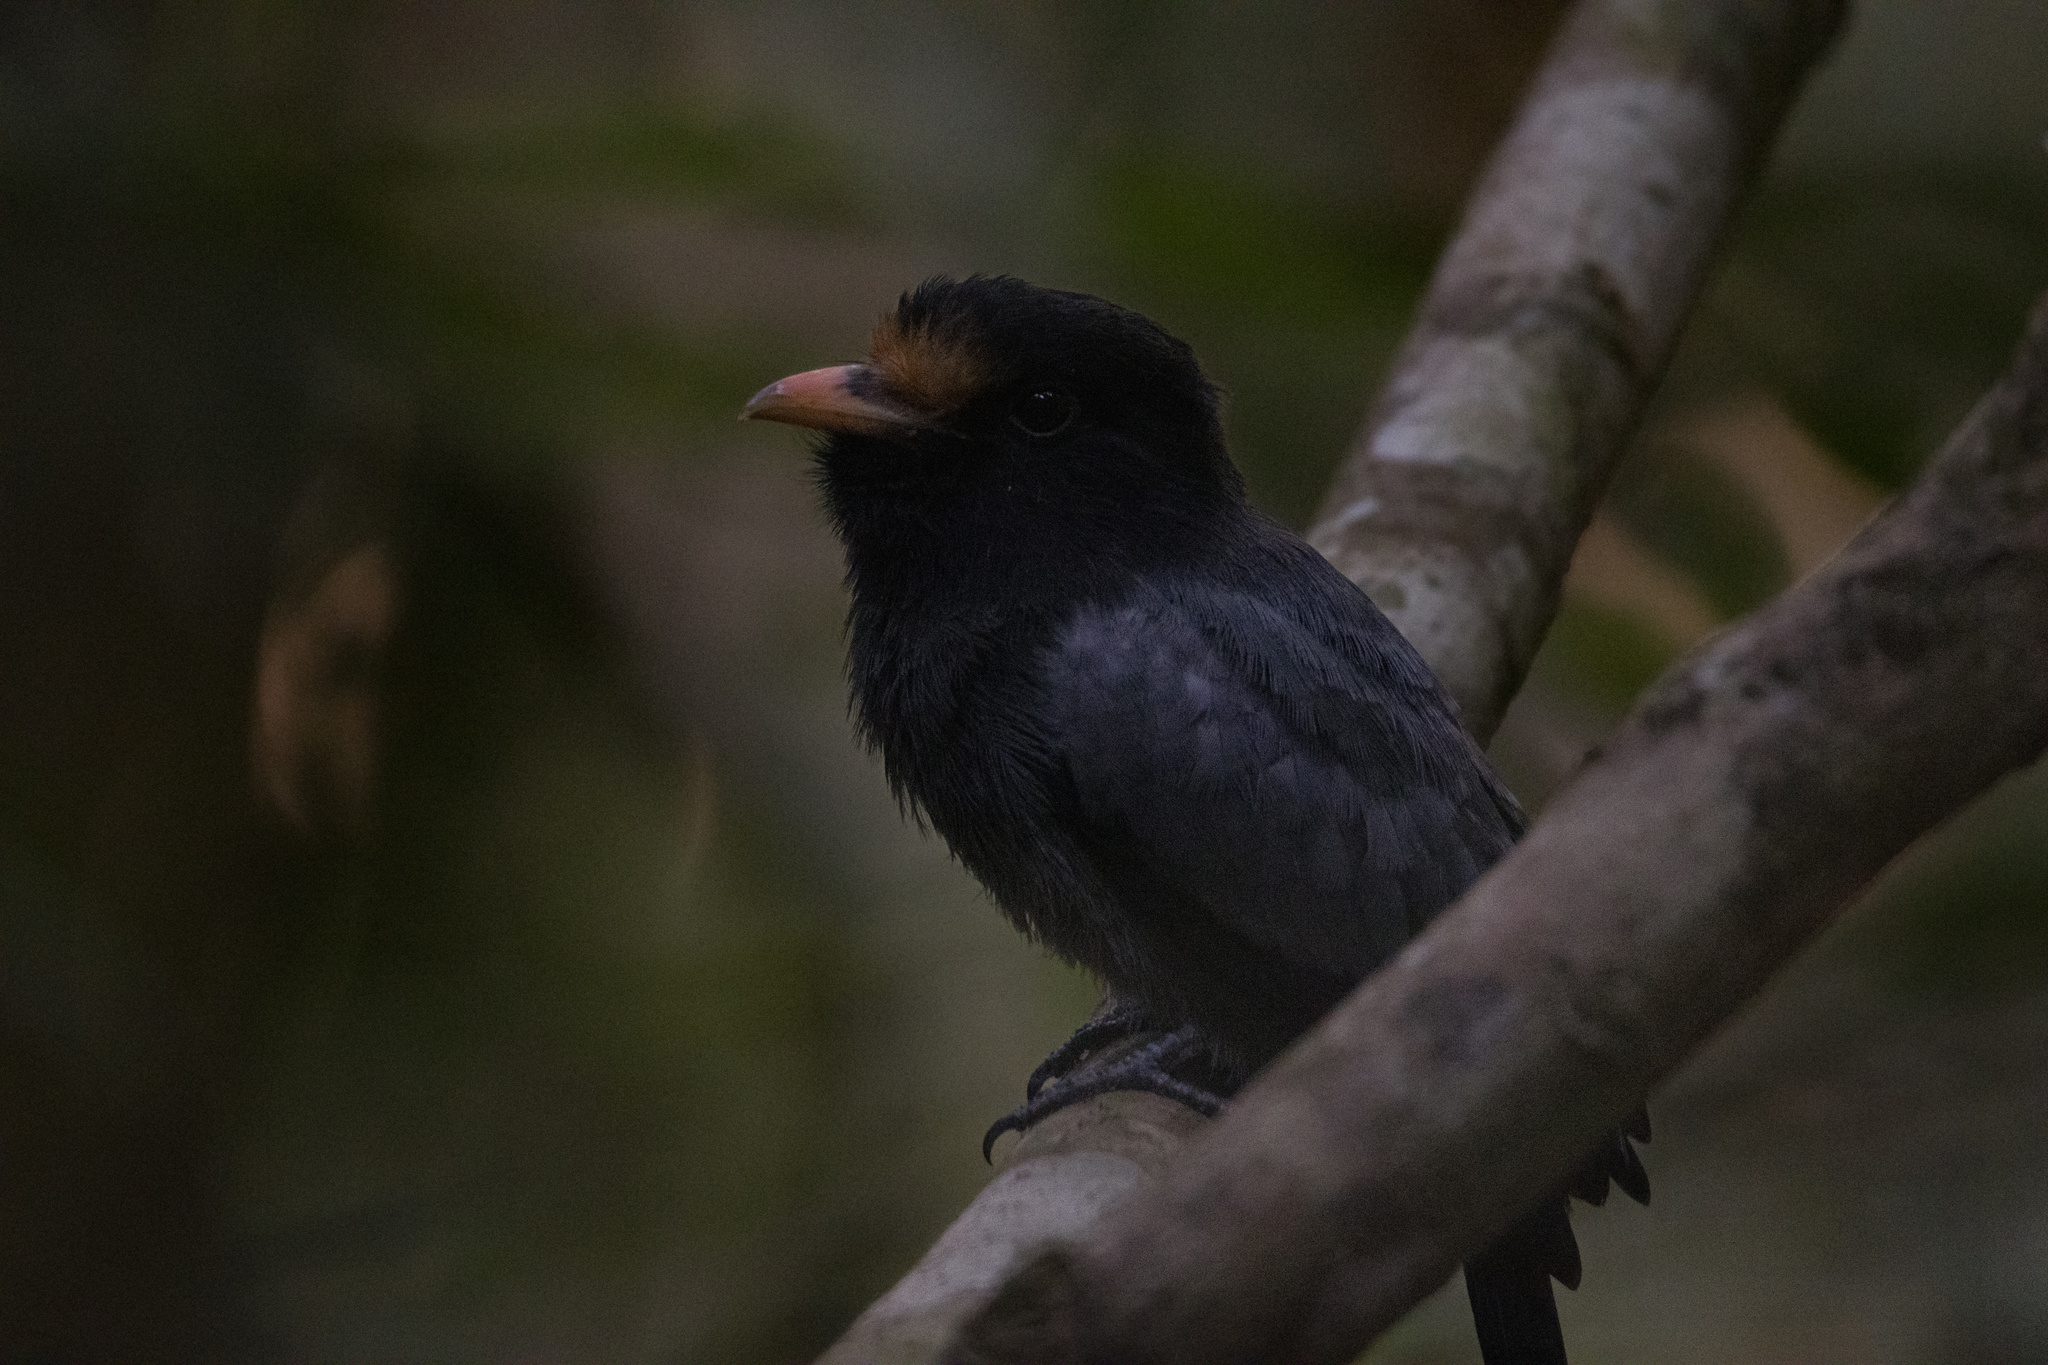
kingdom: Animalia
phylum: Chordata
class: Aves
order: Piciformes
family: Bucconidae
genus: Monasa
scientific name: Monasa morphoeus
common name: White-fronted nunbird
